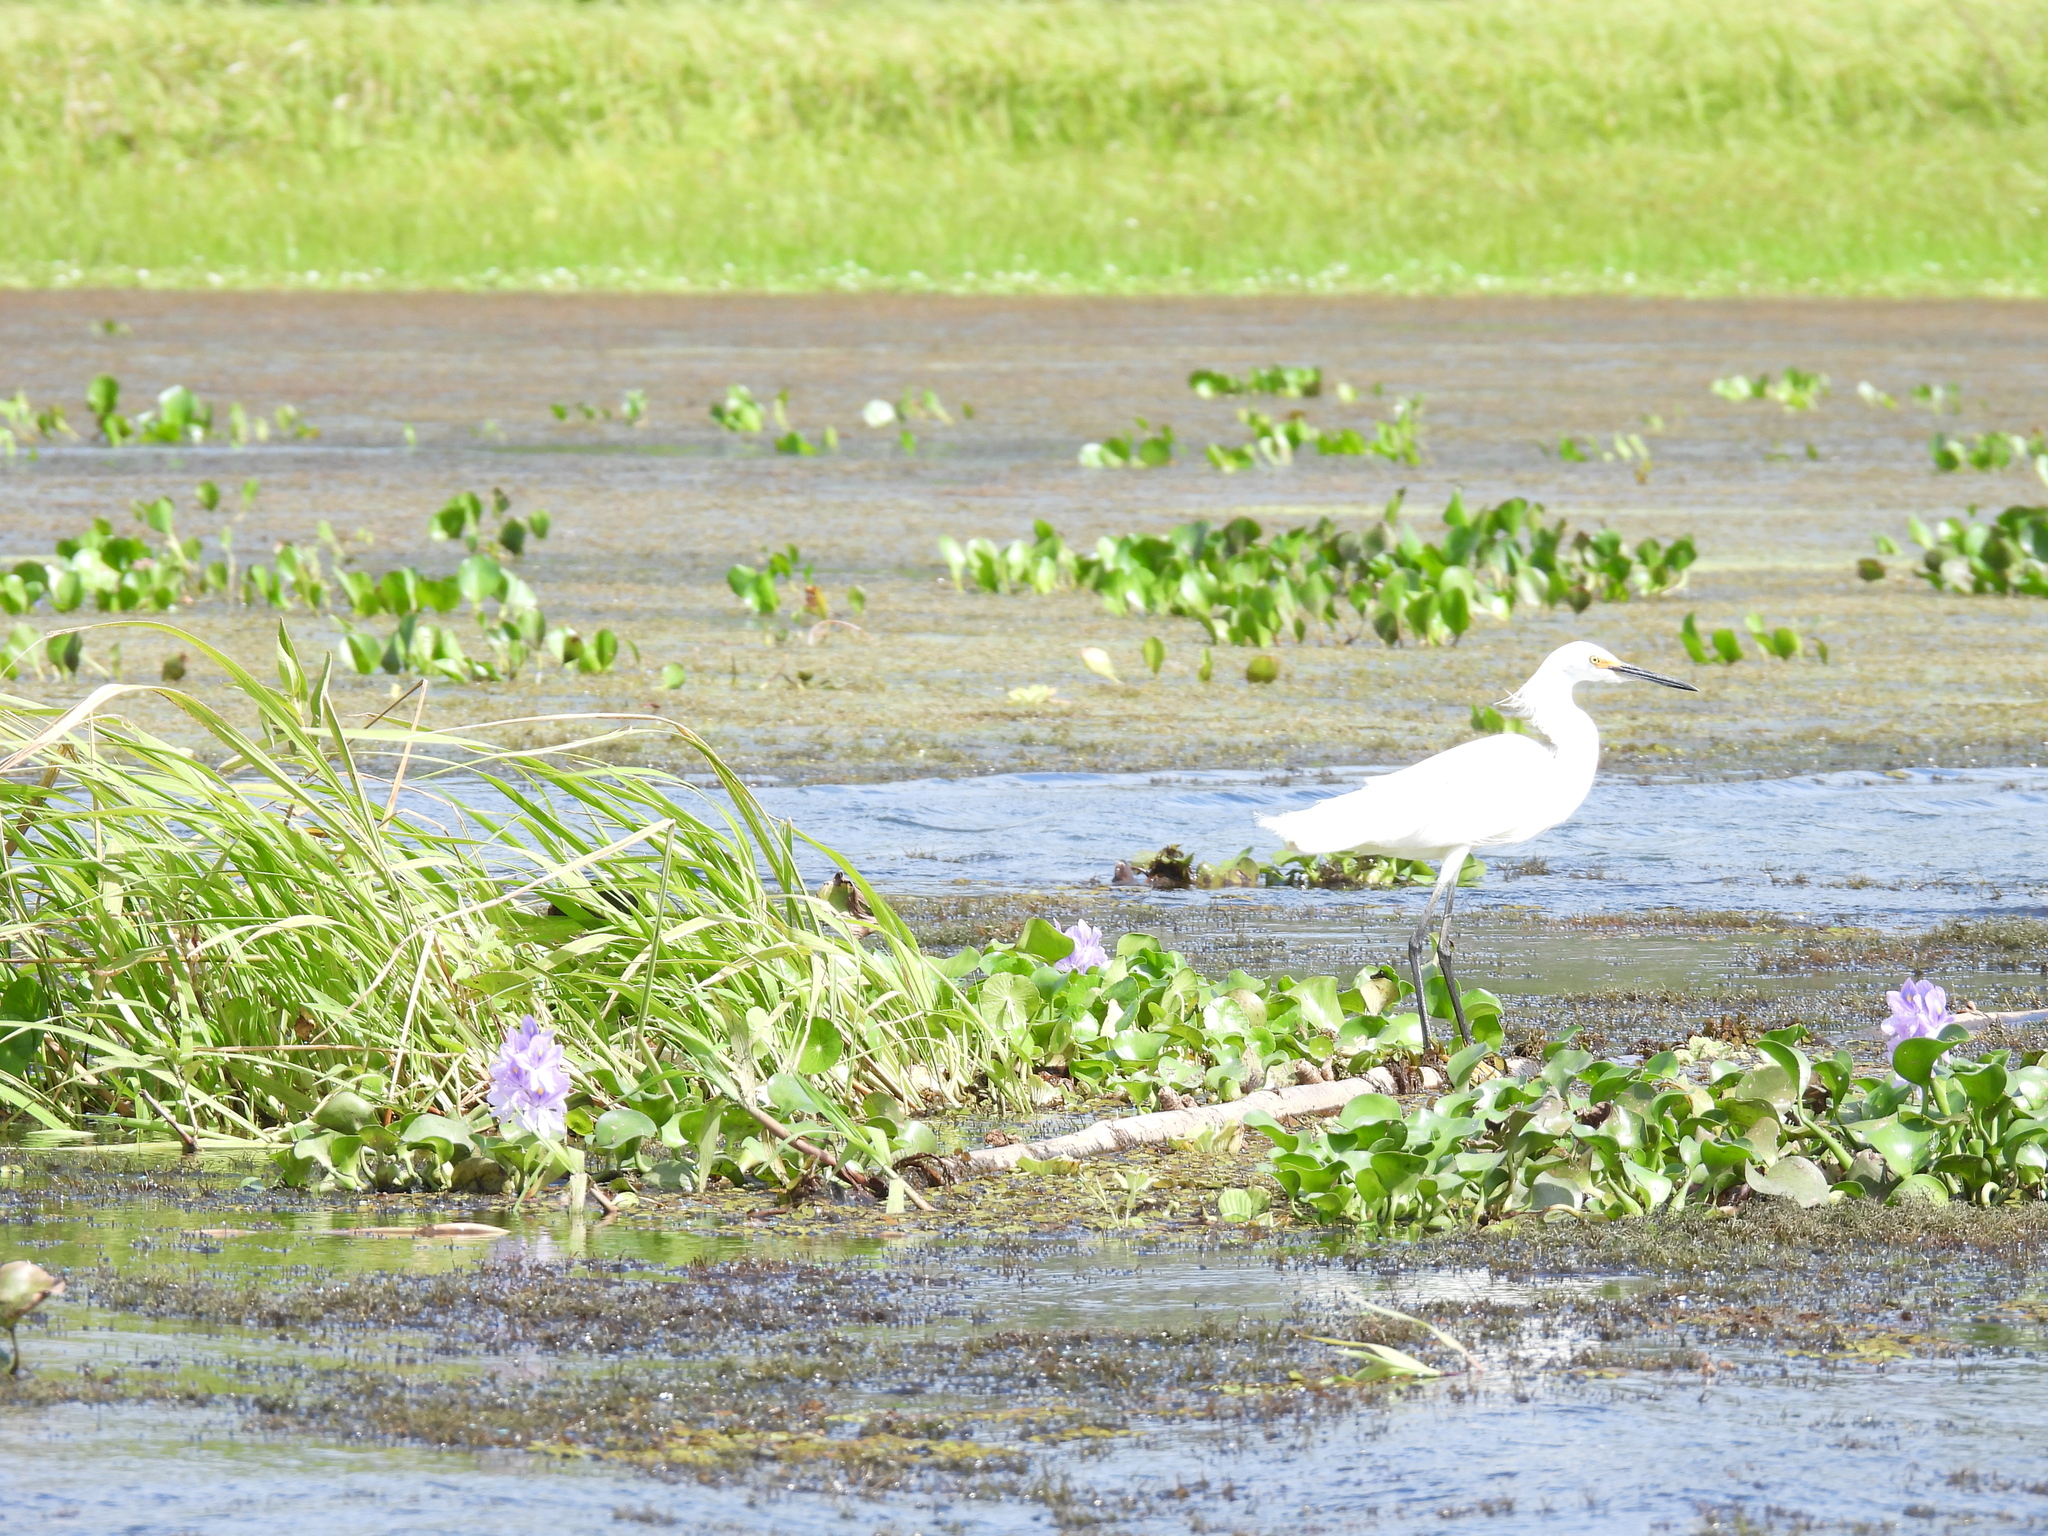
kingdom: Animalia
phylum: Chordata
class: Aves
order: Pelecaniformes
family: Ardeidae
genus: Egretta
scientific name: Egretta thula
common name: Snowy egret
